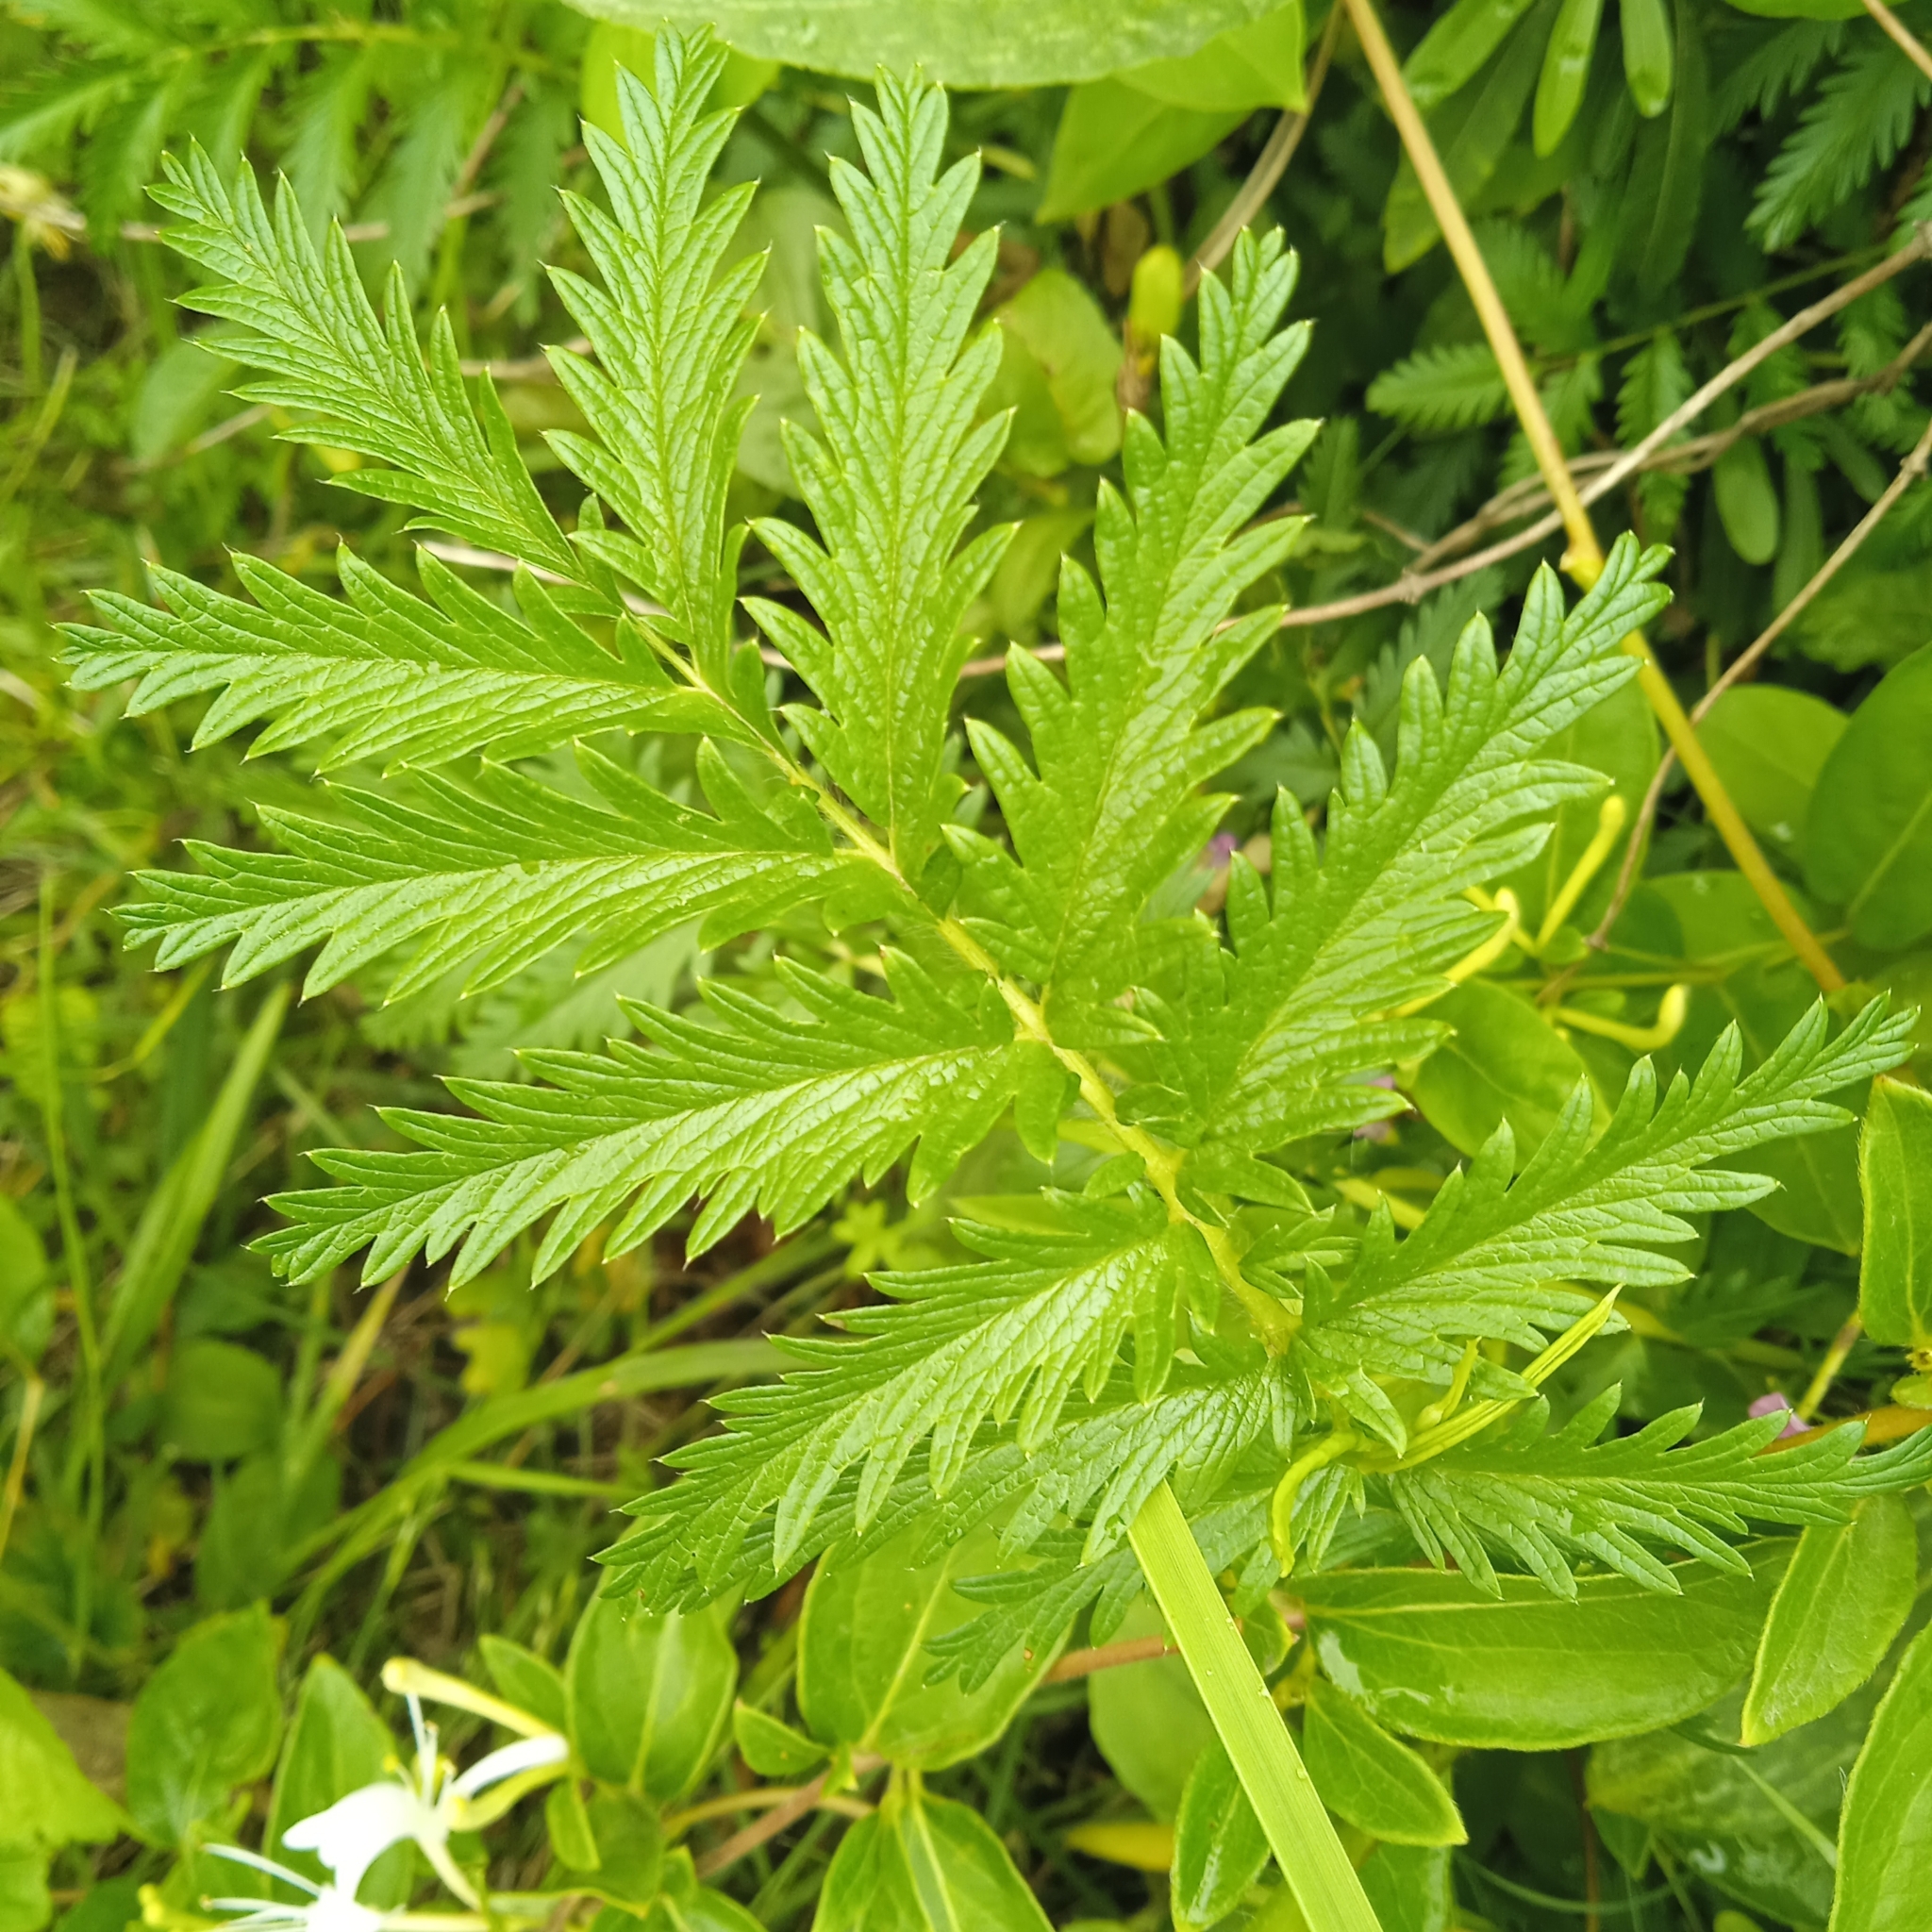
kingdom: Plantae
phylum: Tracheophyta
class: Magnoliopsida
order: Rosales
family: Rosaceae
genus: Acaena
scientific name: Acaena eupatoria
